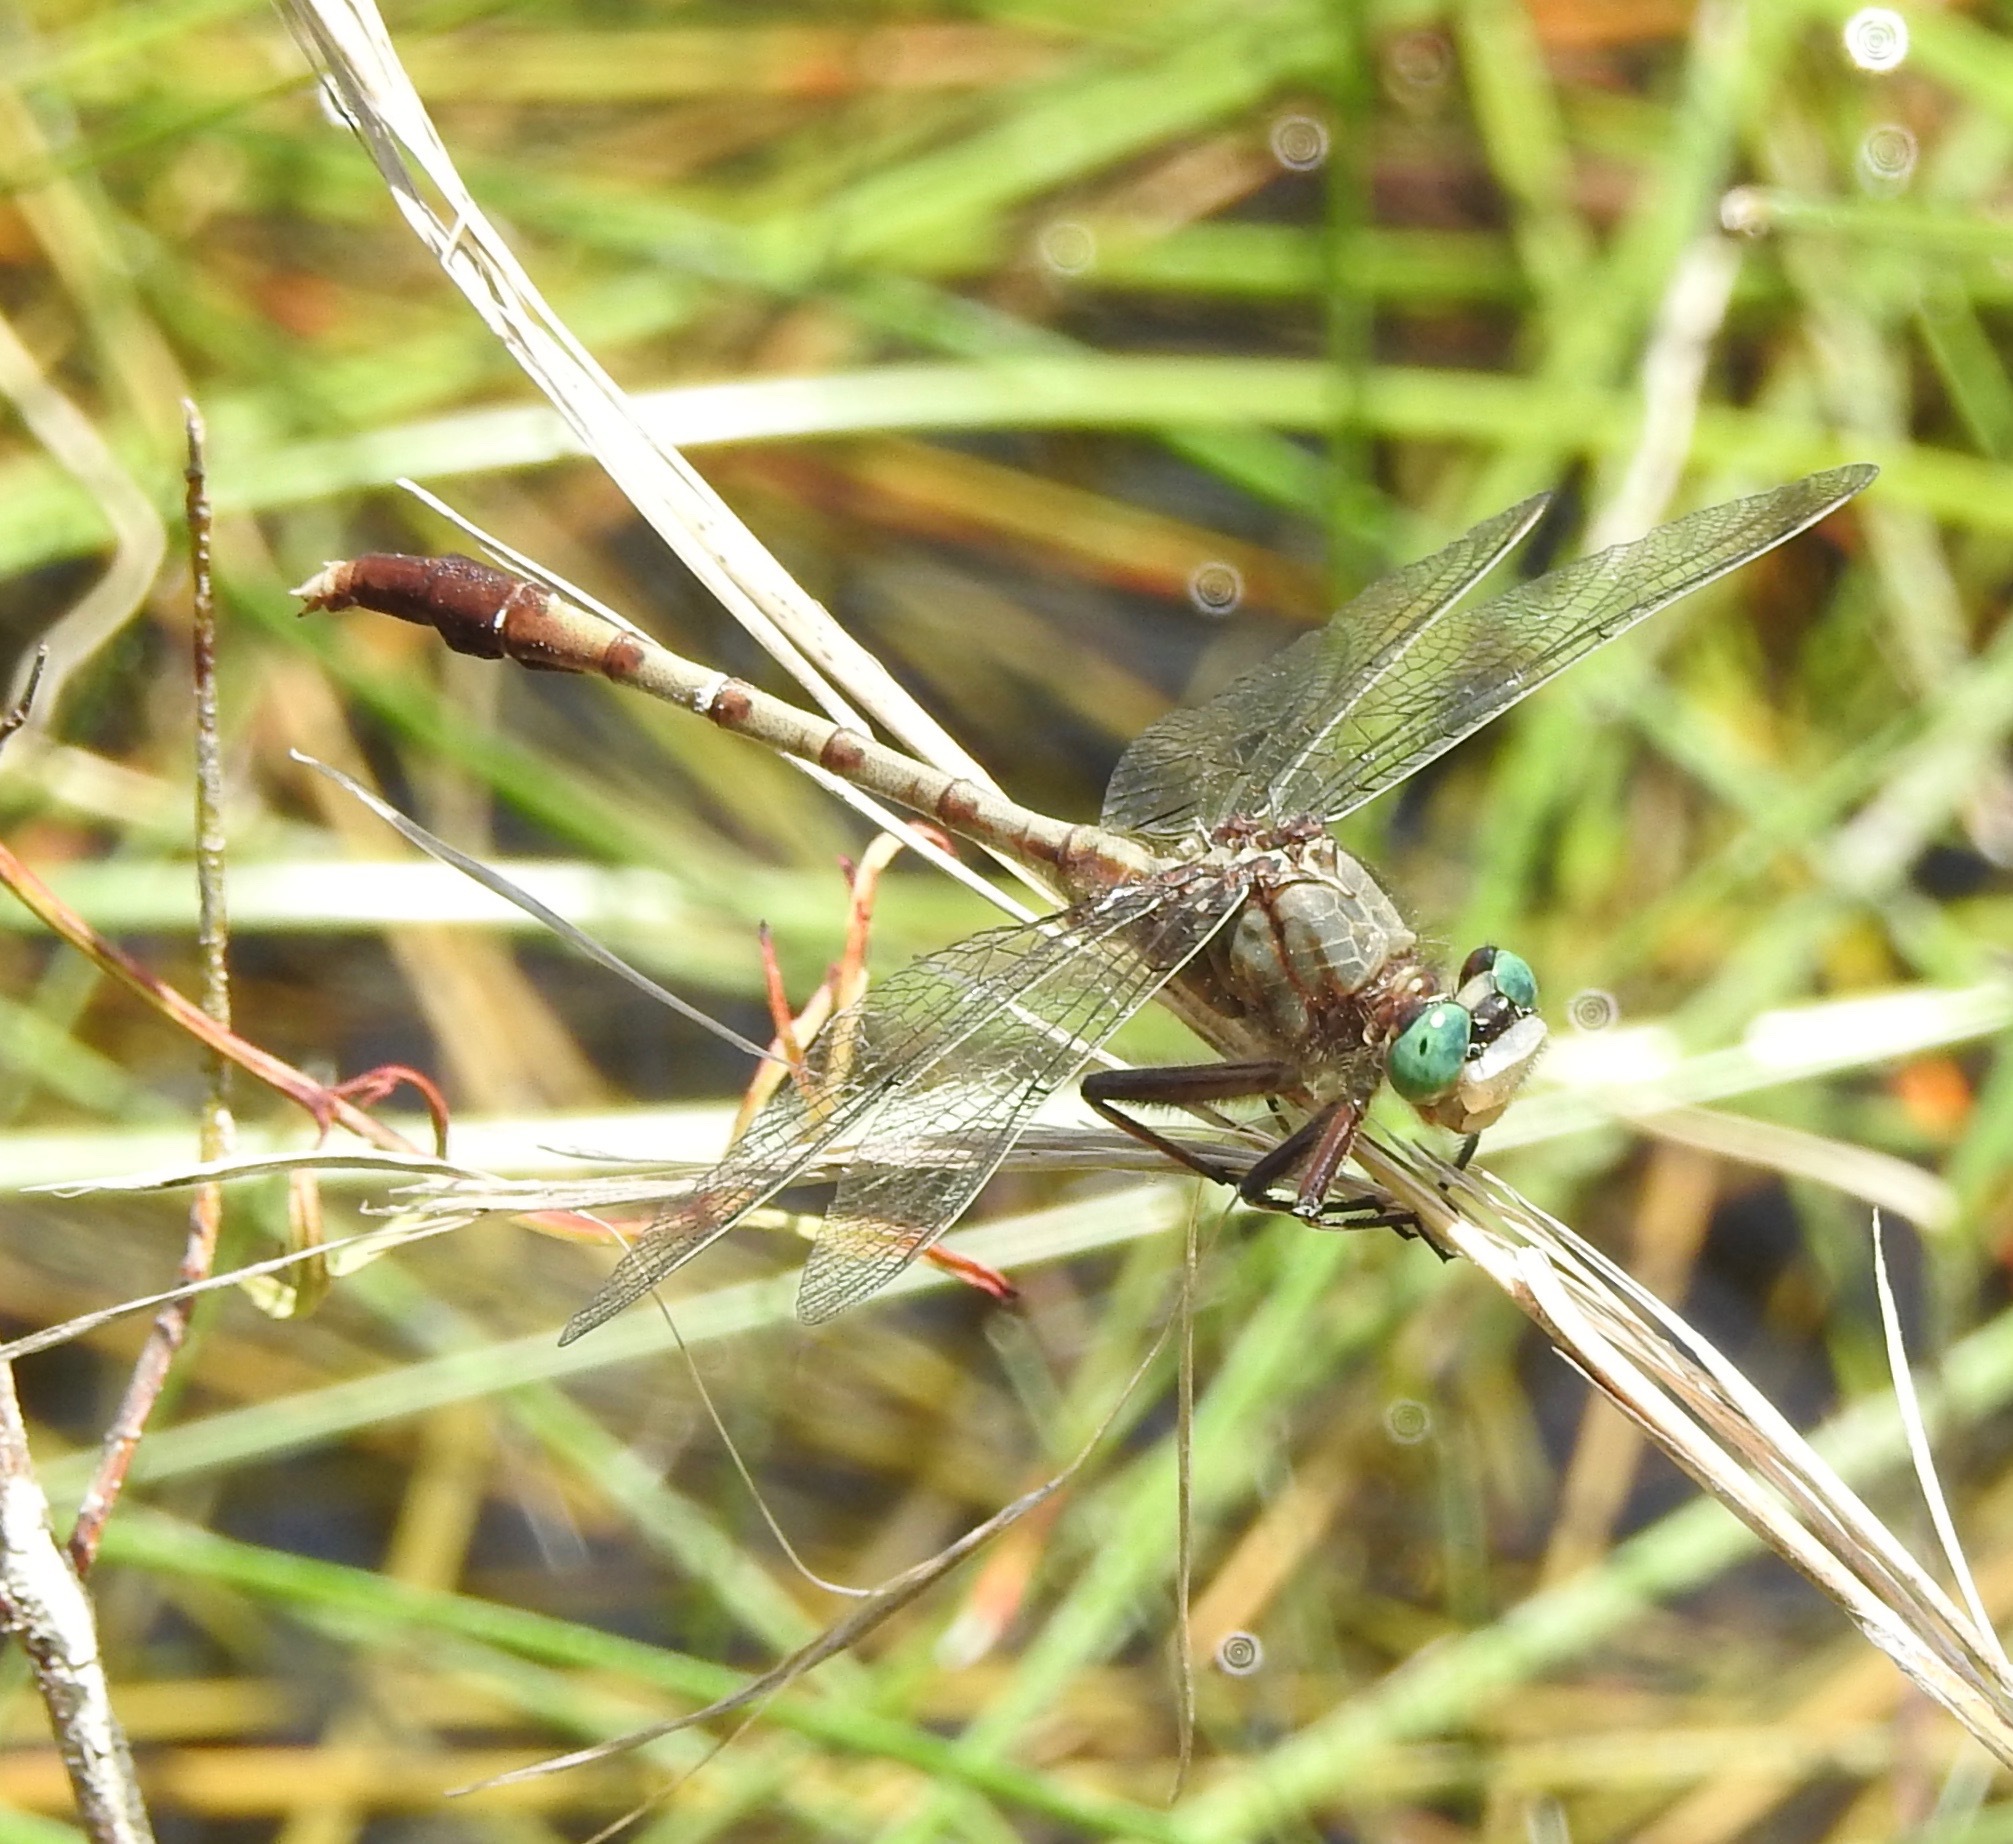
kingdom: Animalia
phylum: Arthropoda
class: Insecta
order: Odonata
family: Gomphidae
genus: Arigomphus
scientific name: Arigomphus pallidus
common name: Gray-green clubtail
